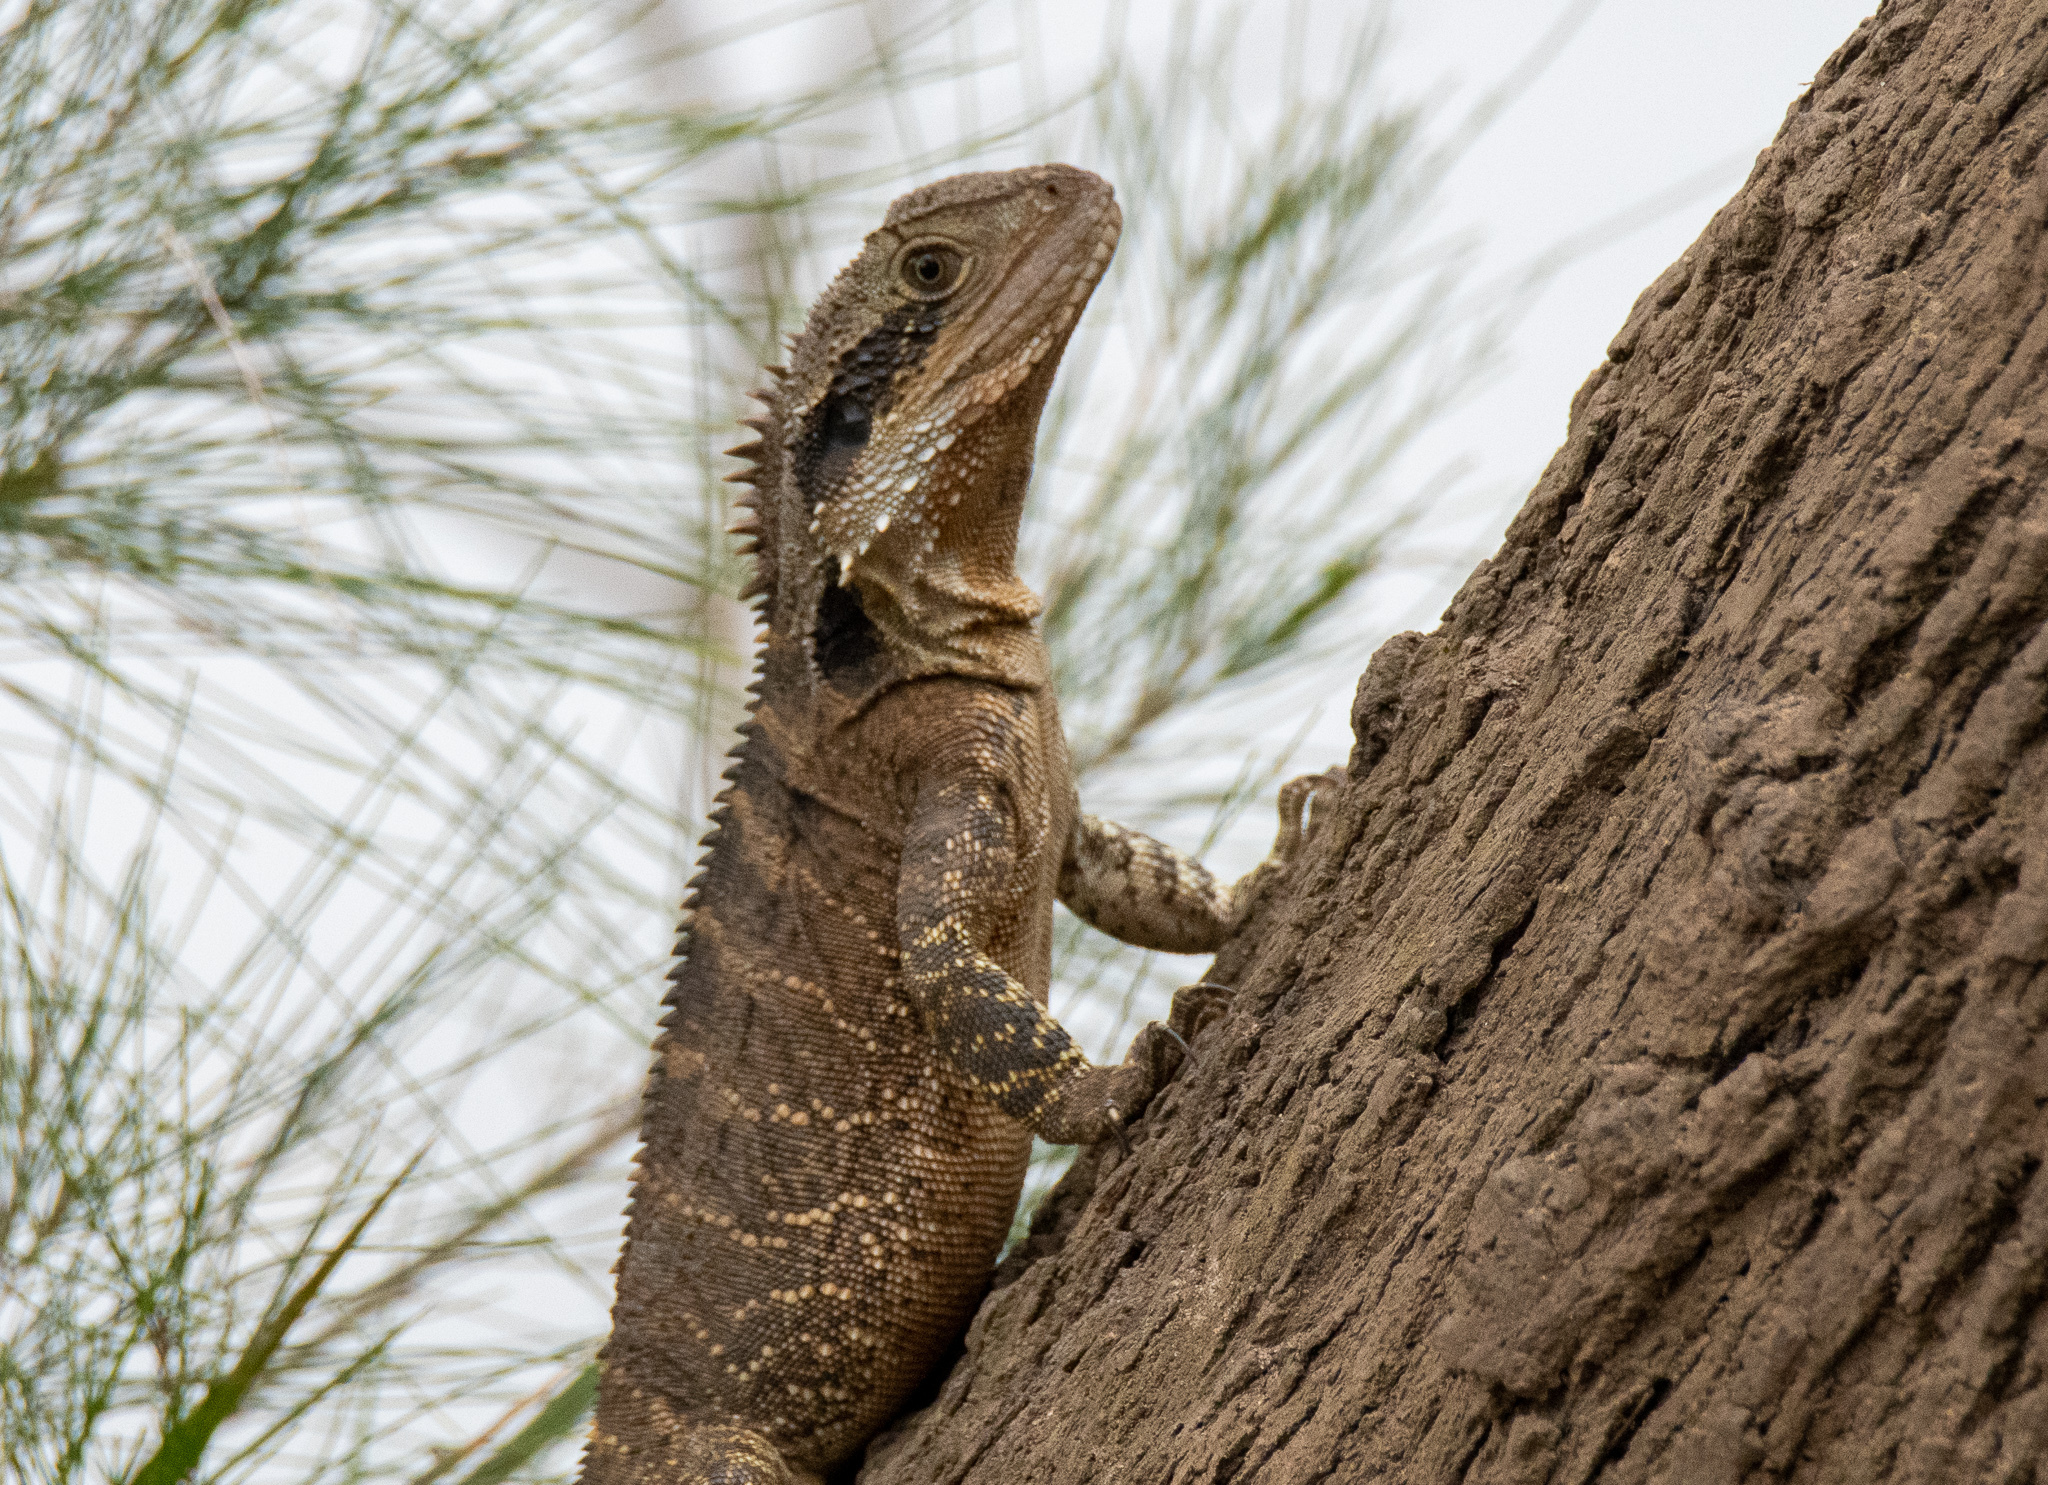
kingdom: Animalia
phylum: Chordata
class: Squamata
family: Agamidae
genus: Intellagama
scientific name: Intellagama lesueurii
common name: Eastern water dragon
